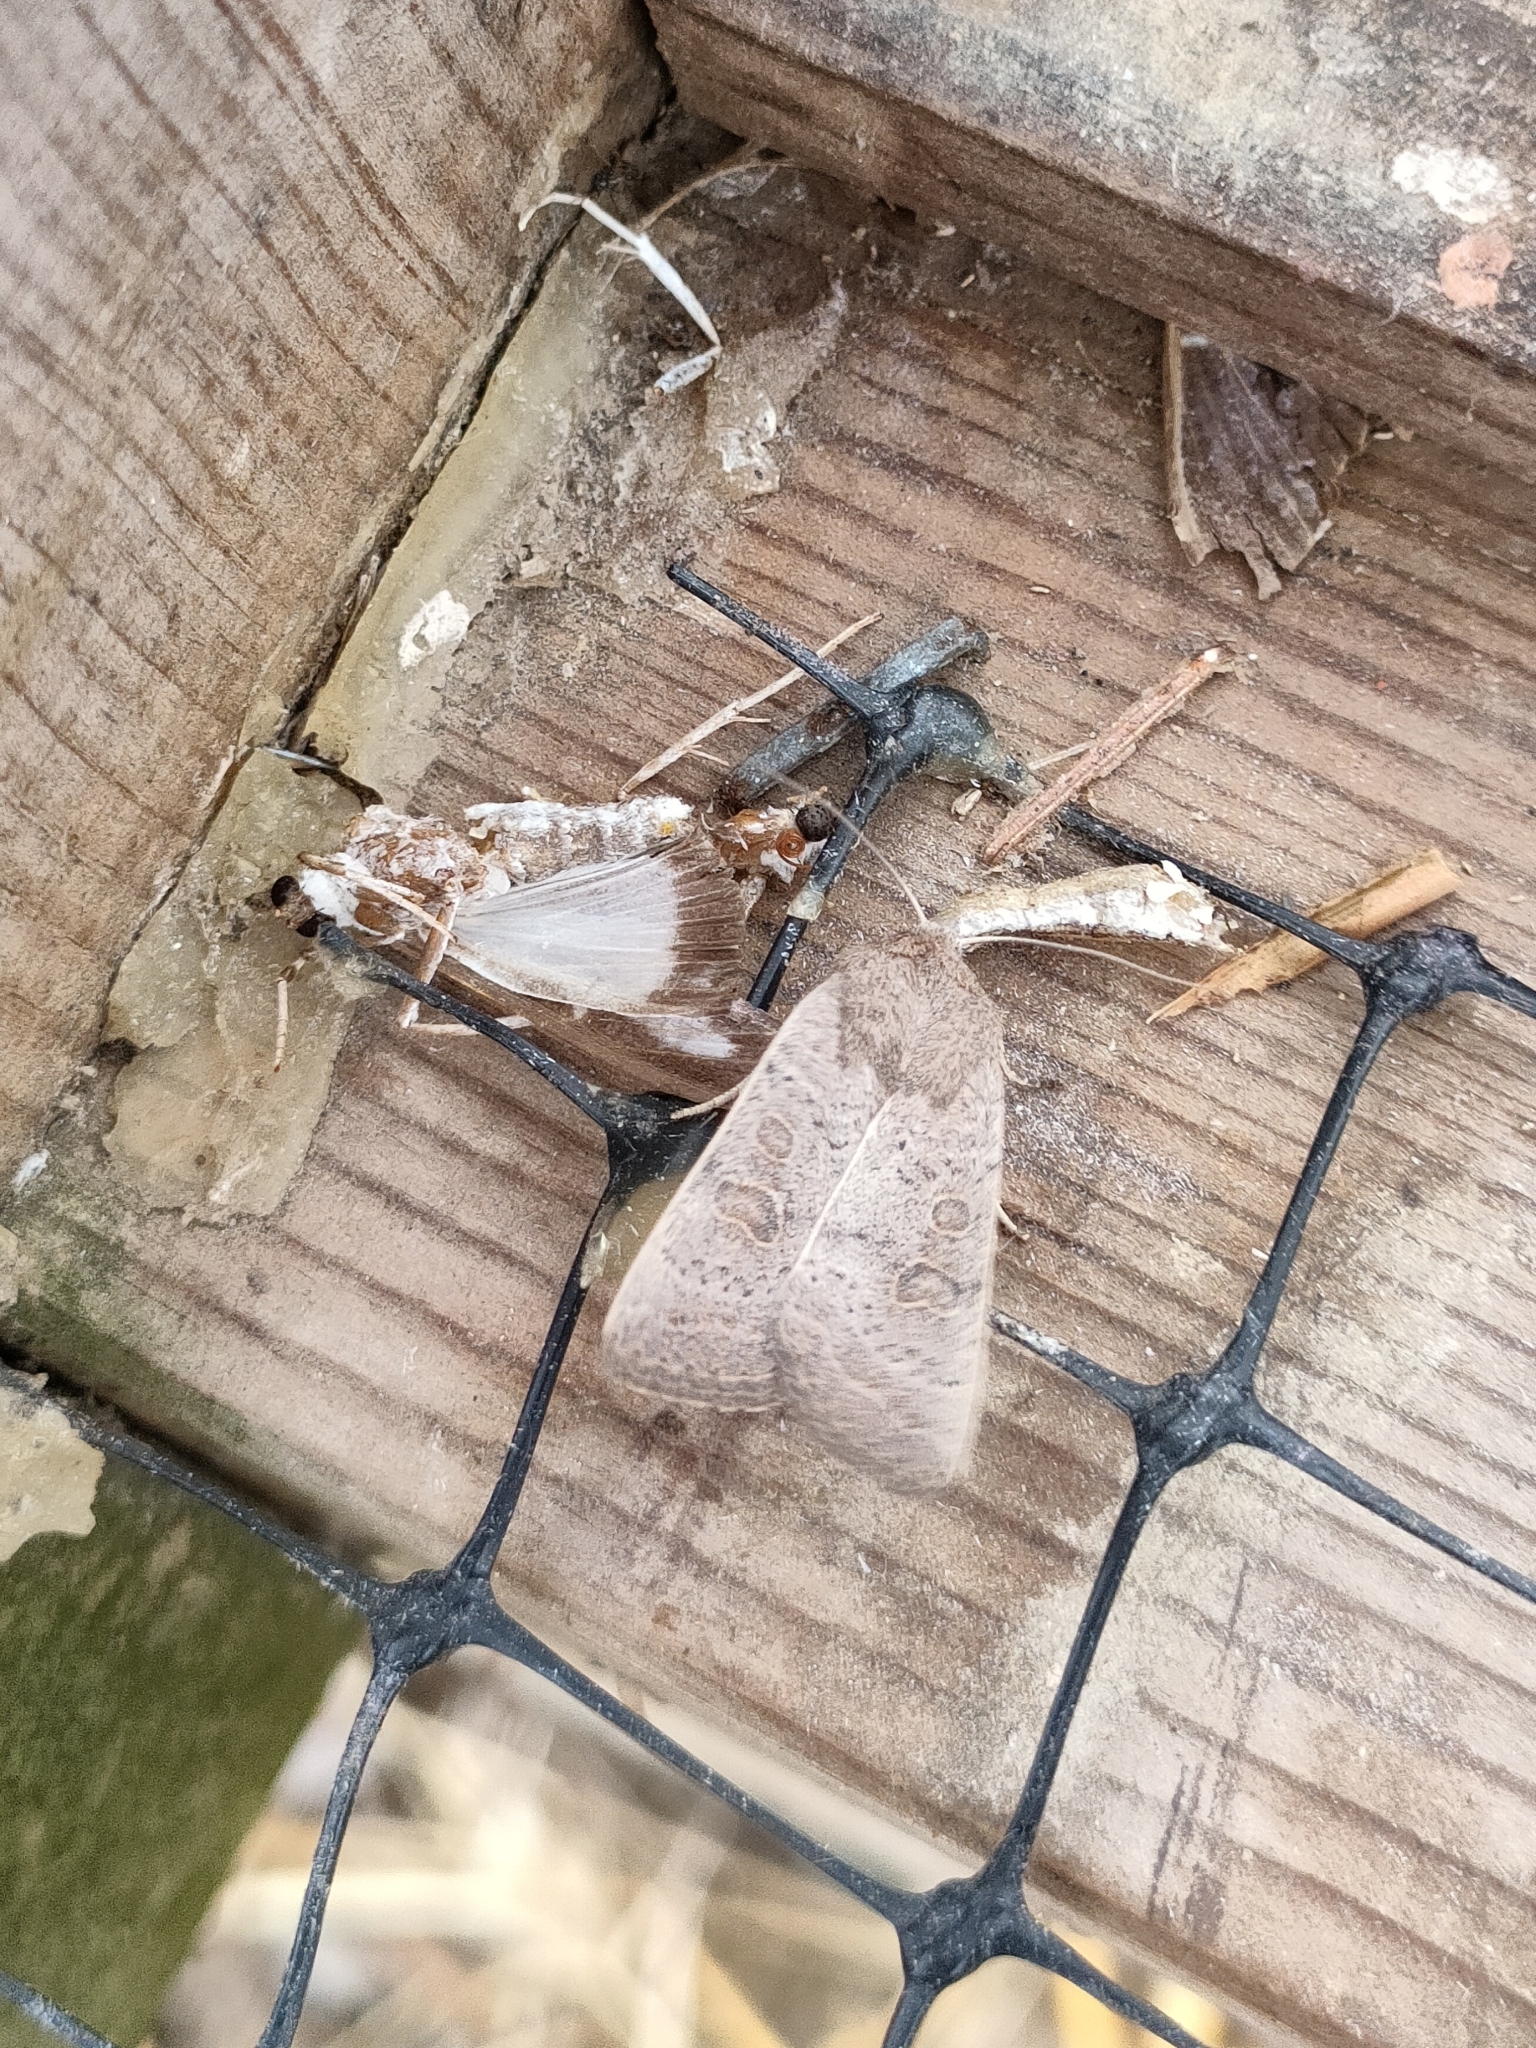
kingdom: Animalia
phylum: Arthropoda
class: Insecta
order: Lepidoptera
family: Noctuidae
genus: Hoplodrina
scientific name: Hoplodrina ambigua
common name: Vine's rustic
